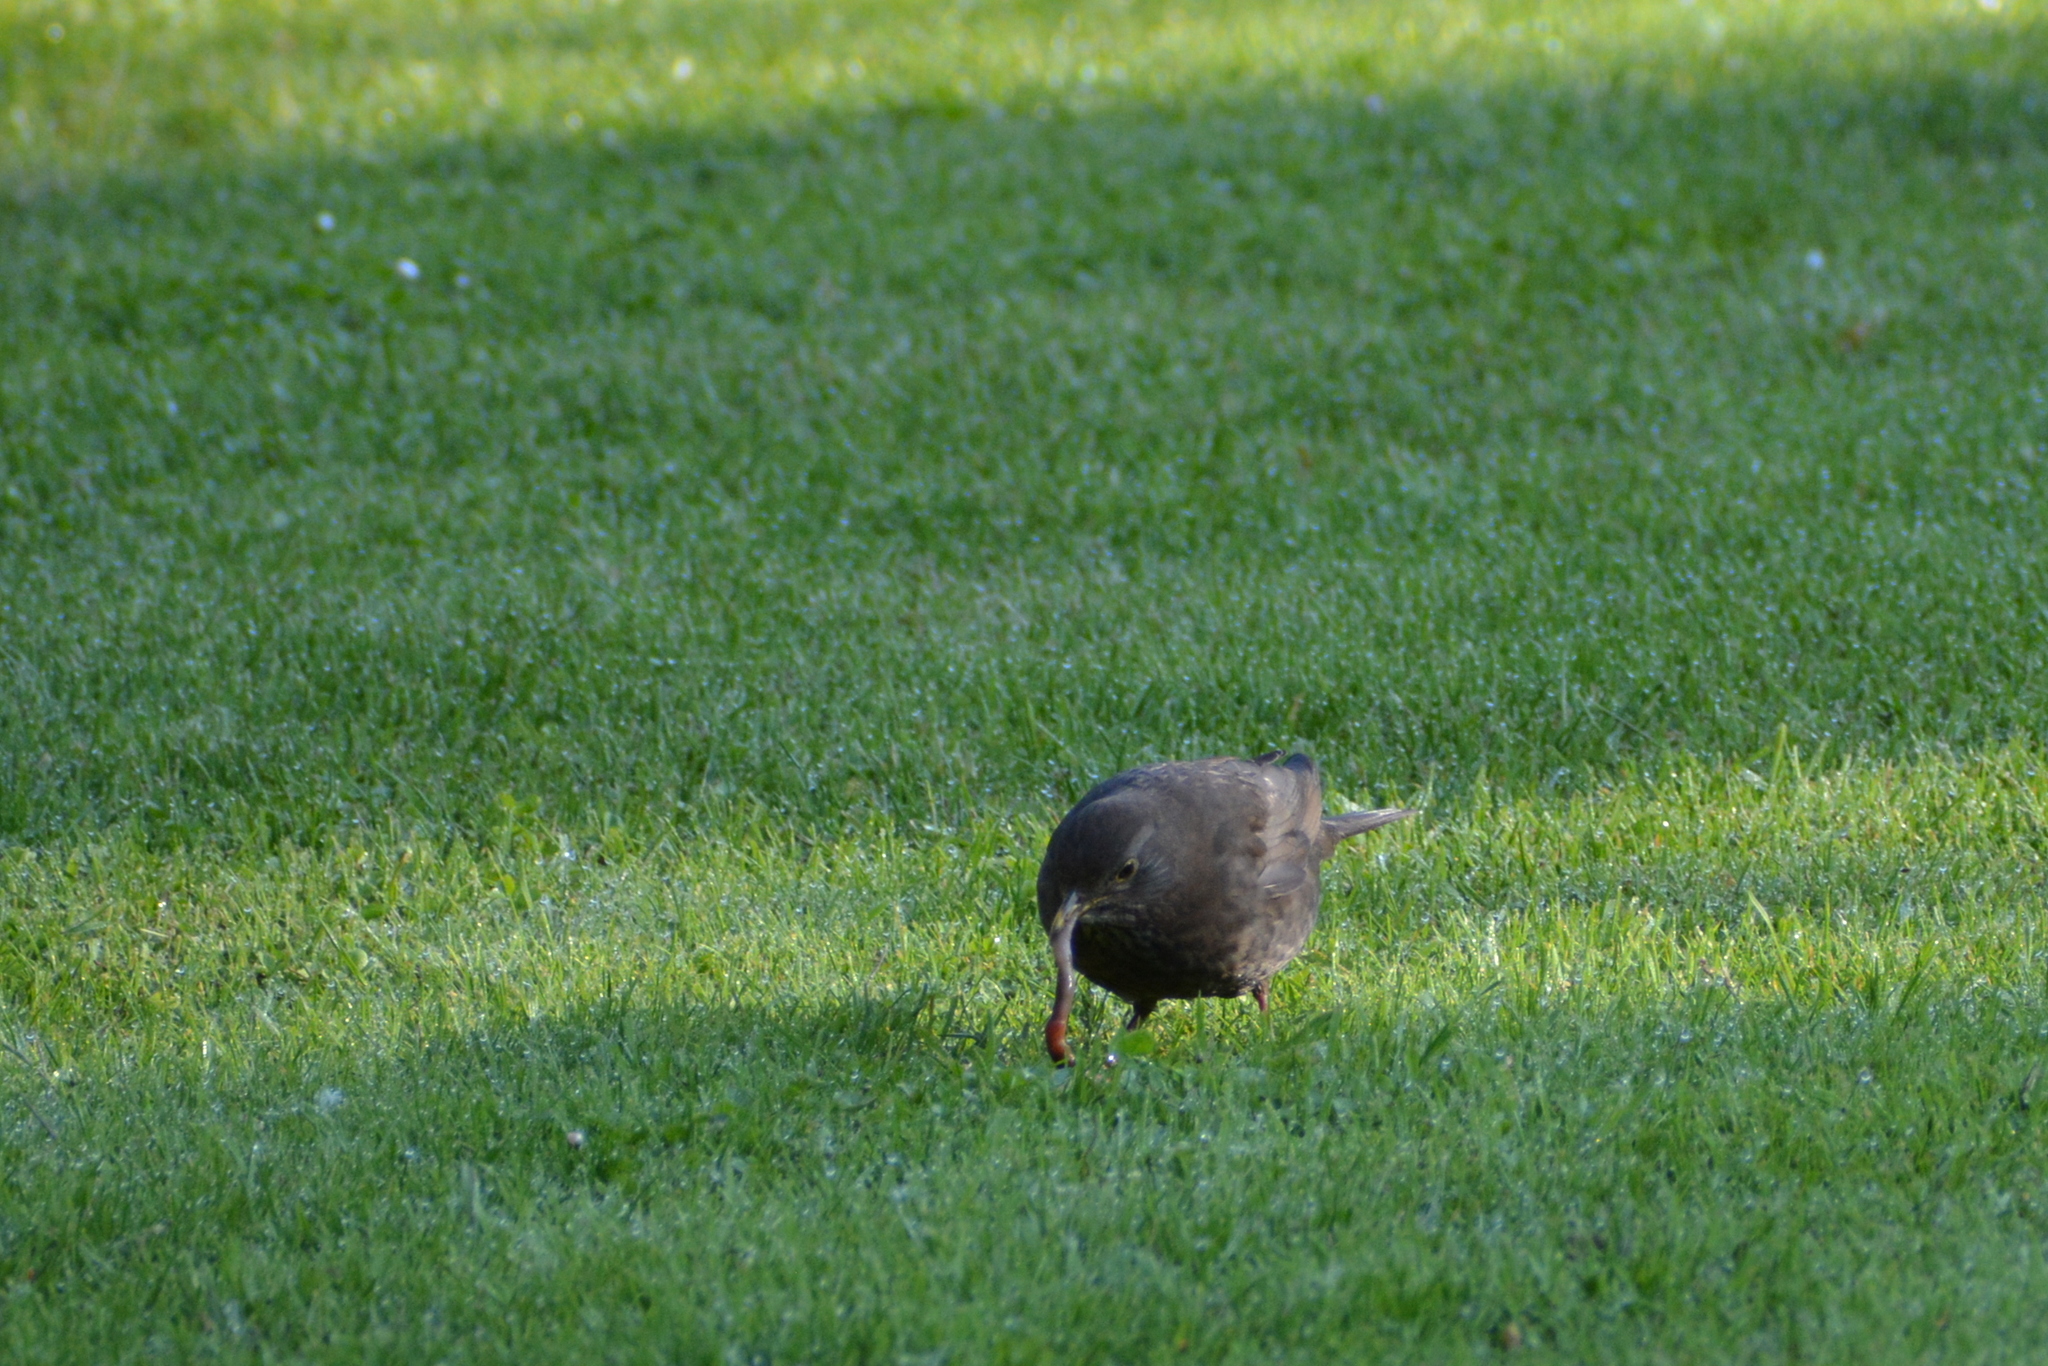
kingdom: Animalia
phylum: Chordata
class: Aves
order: Passeriformes
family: Turdidae
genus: Turdus
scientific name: Turdus merula
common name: Common blackbird
